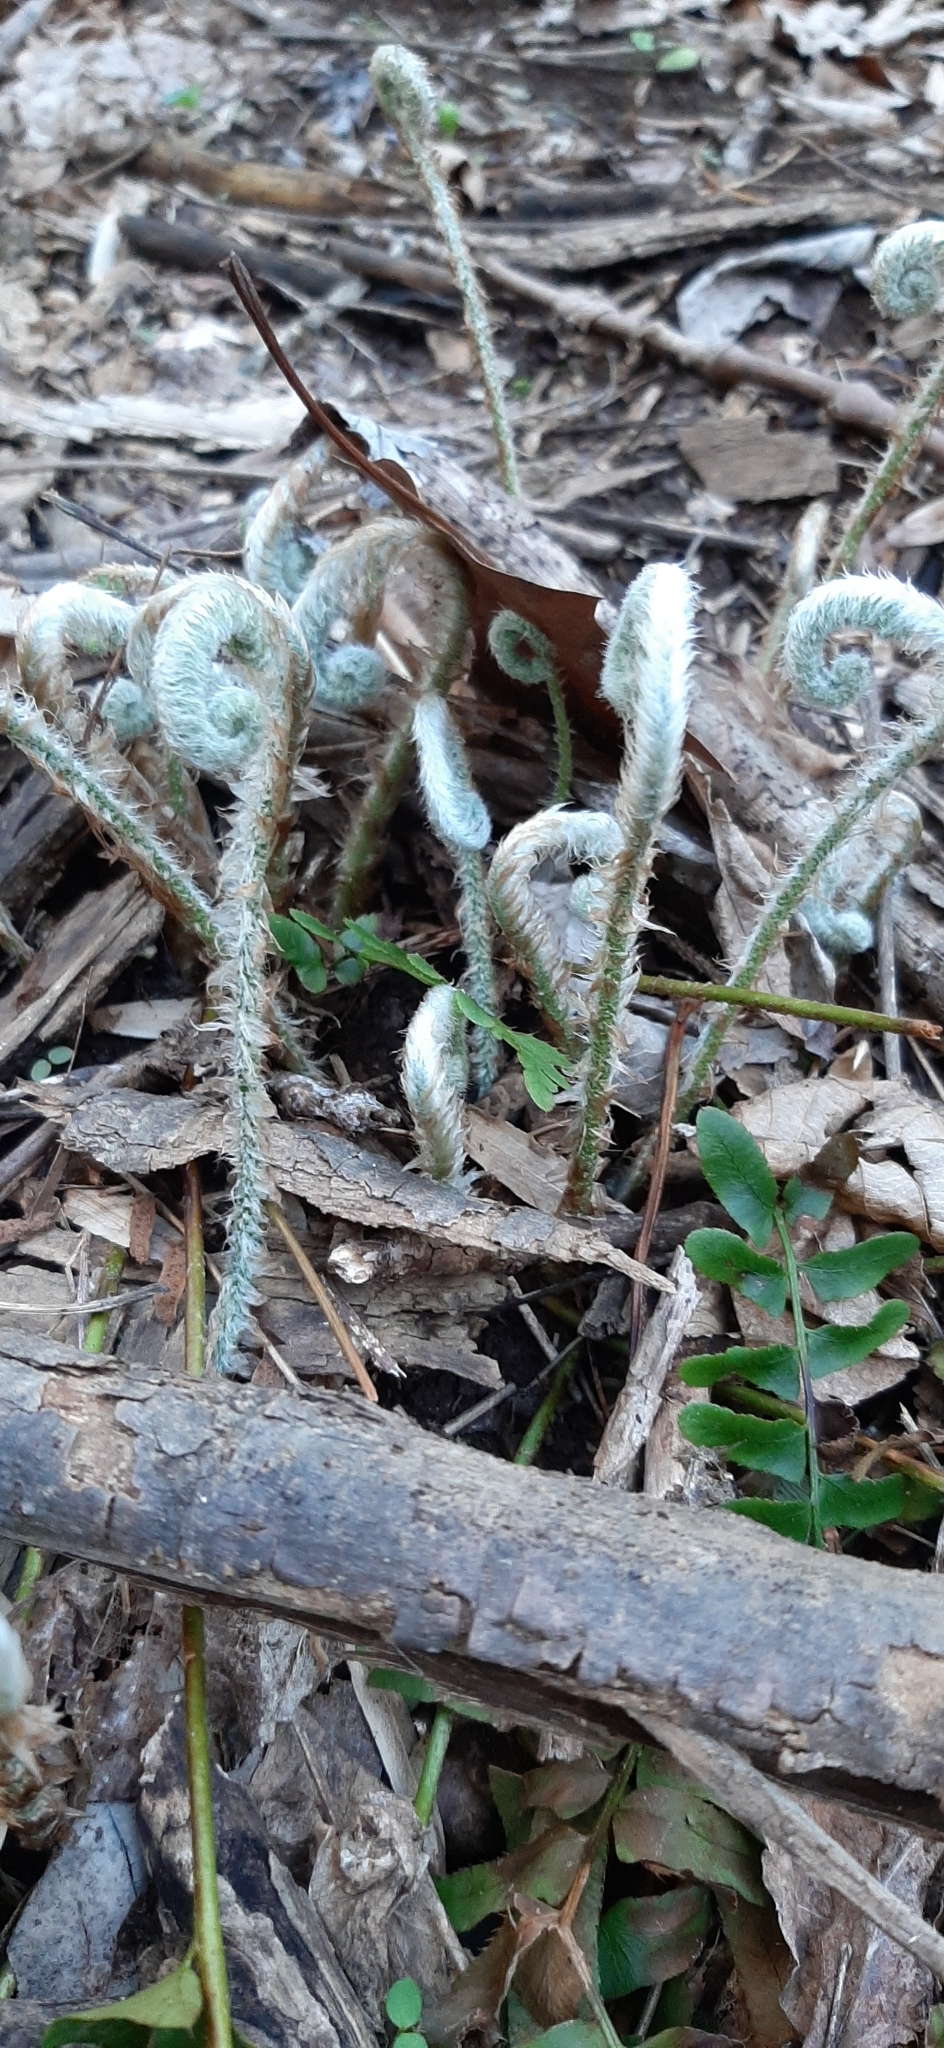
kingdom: Plantae
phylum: Tracheophyta
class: Polypodiopsida
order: Polypodiales
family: Dryopteridaceae
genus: Polystichum
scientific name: Polystichum acrostichoides
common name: Christmas fern
